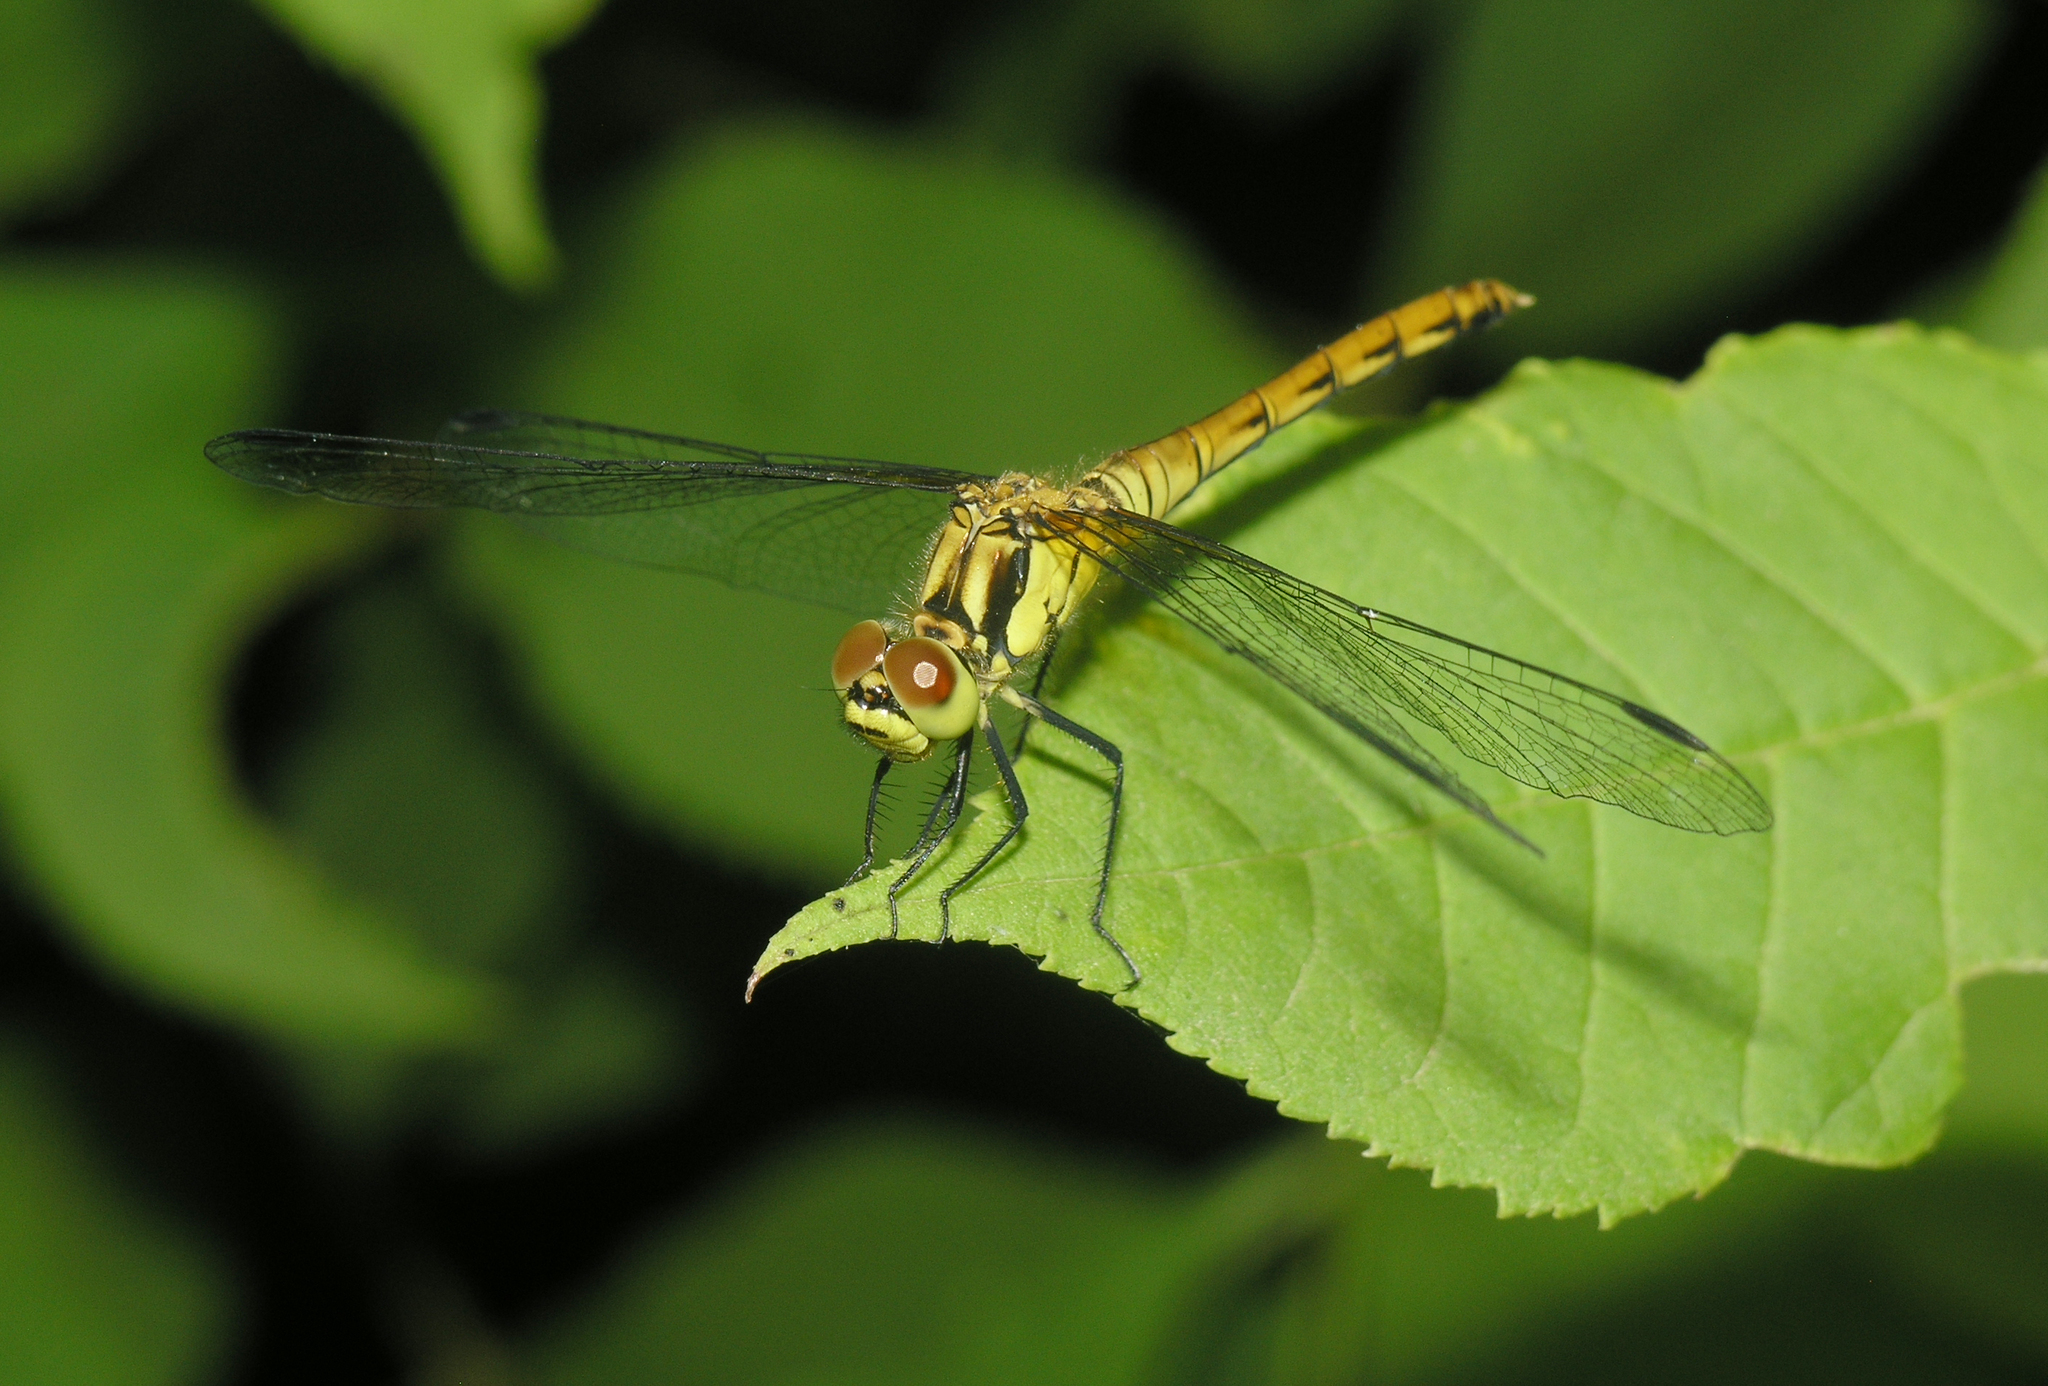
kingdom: Animalia
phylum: Arthropoda
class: Insecta
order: Odonata
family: Libellulidae
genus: Sympetrum
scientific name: Sympetrum eroticum
